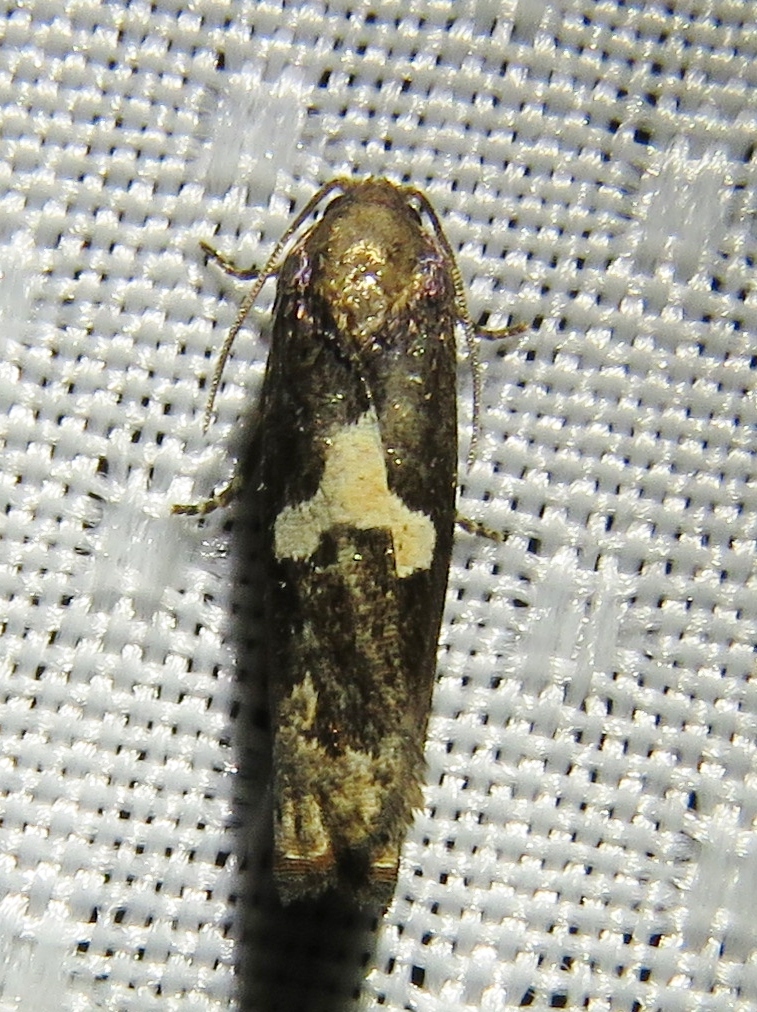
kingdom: Animalia
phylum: Arthropoda
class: Insecta
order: Lepidoptera
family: Tortricidae
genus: Epiblema
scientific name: Epiblema otiosana
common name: Bidens borer moth
